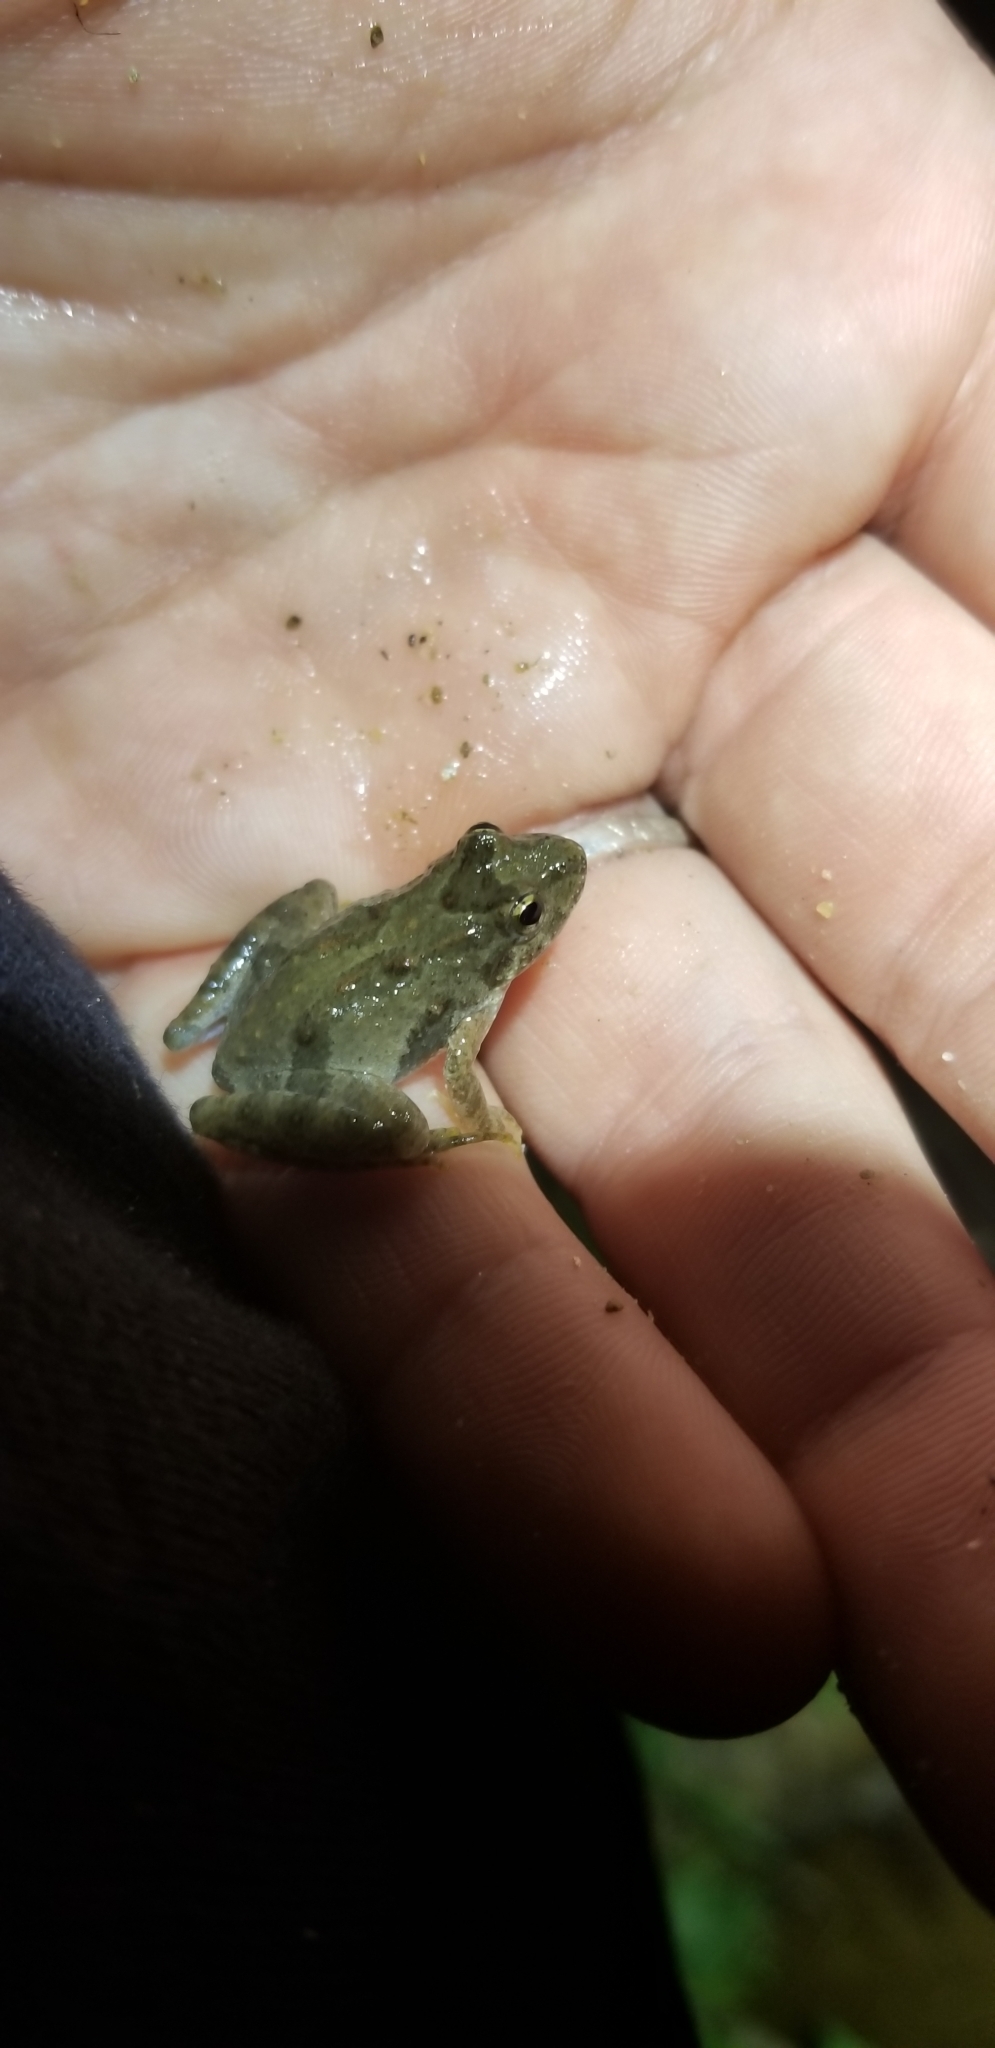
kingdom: Animalia
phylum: Chordata
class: Amphibia
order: Anura
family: Hylidae
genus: Acris
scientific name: Acris crepitans
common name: Northern cricket frog
